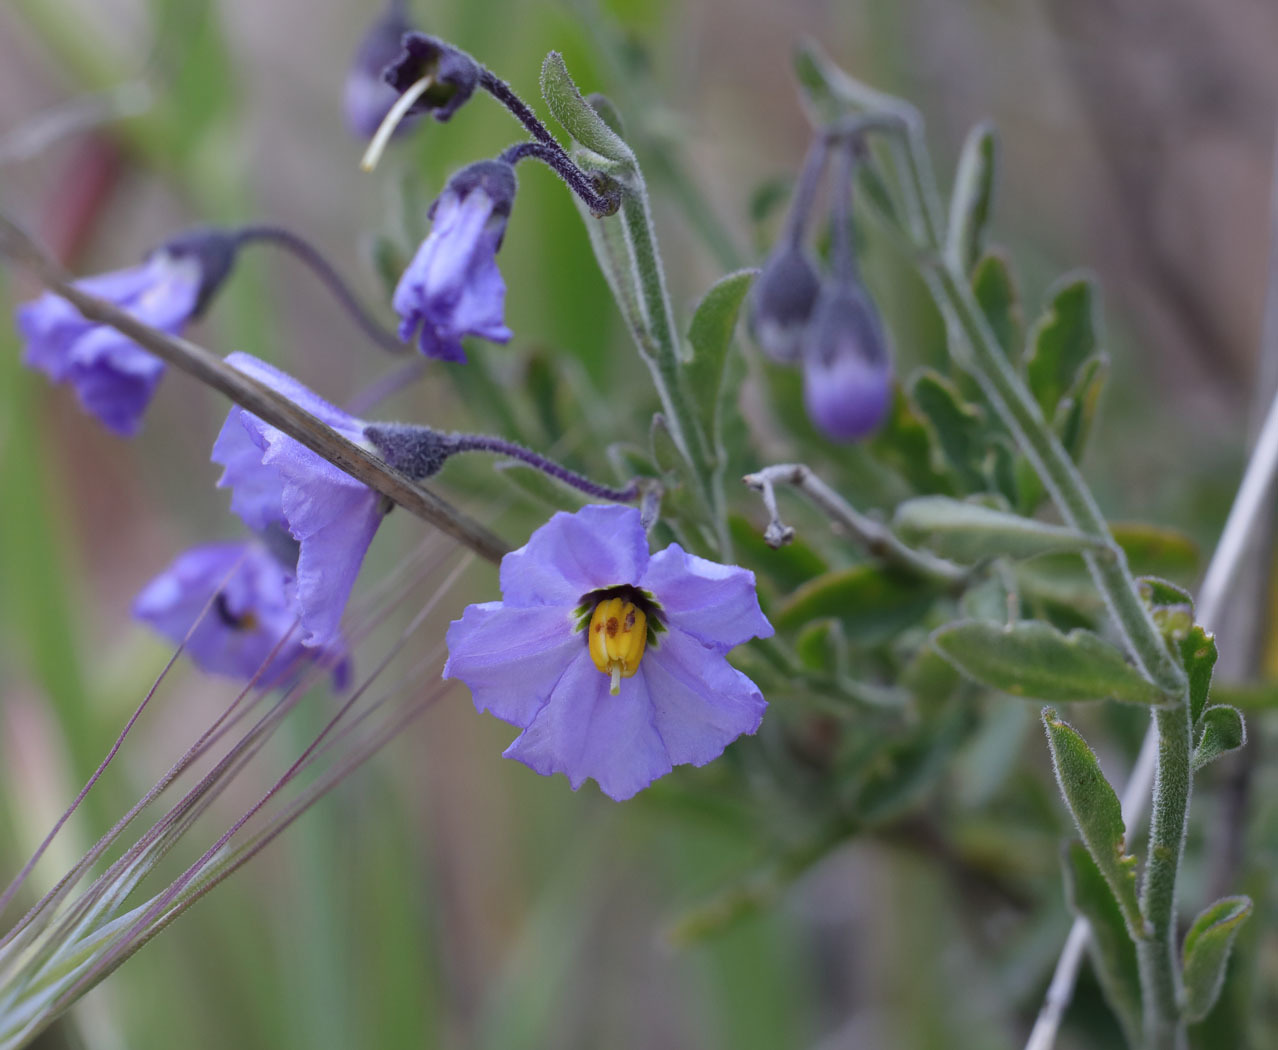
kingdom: Plantae
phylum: Tracheophyta
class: Magnoliopsida
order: Solanales
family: Solanaceae
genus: Solanum
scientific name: Solanum umbelliferum
